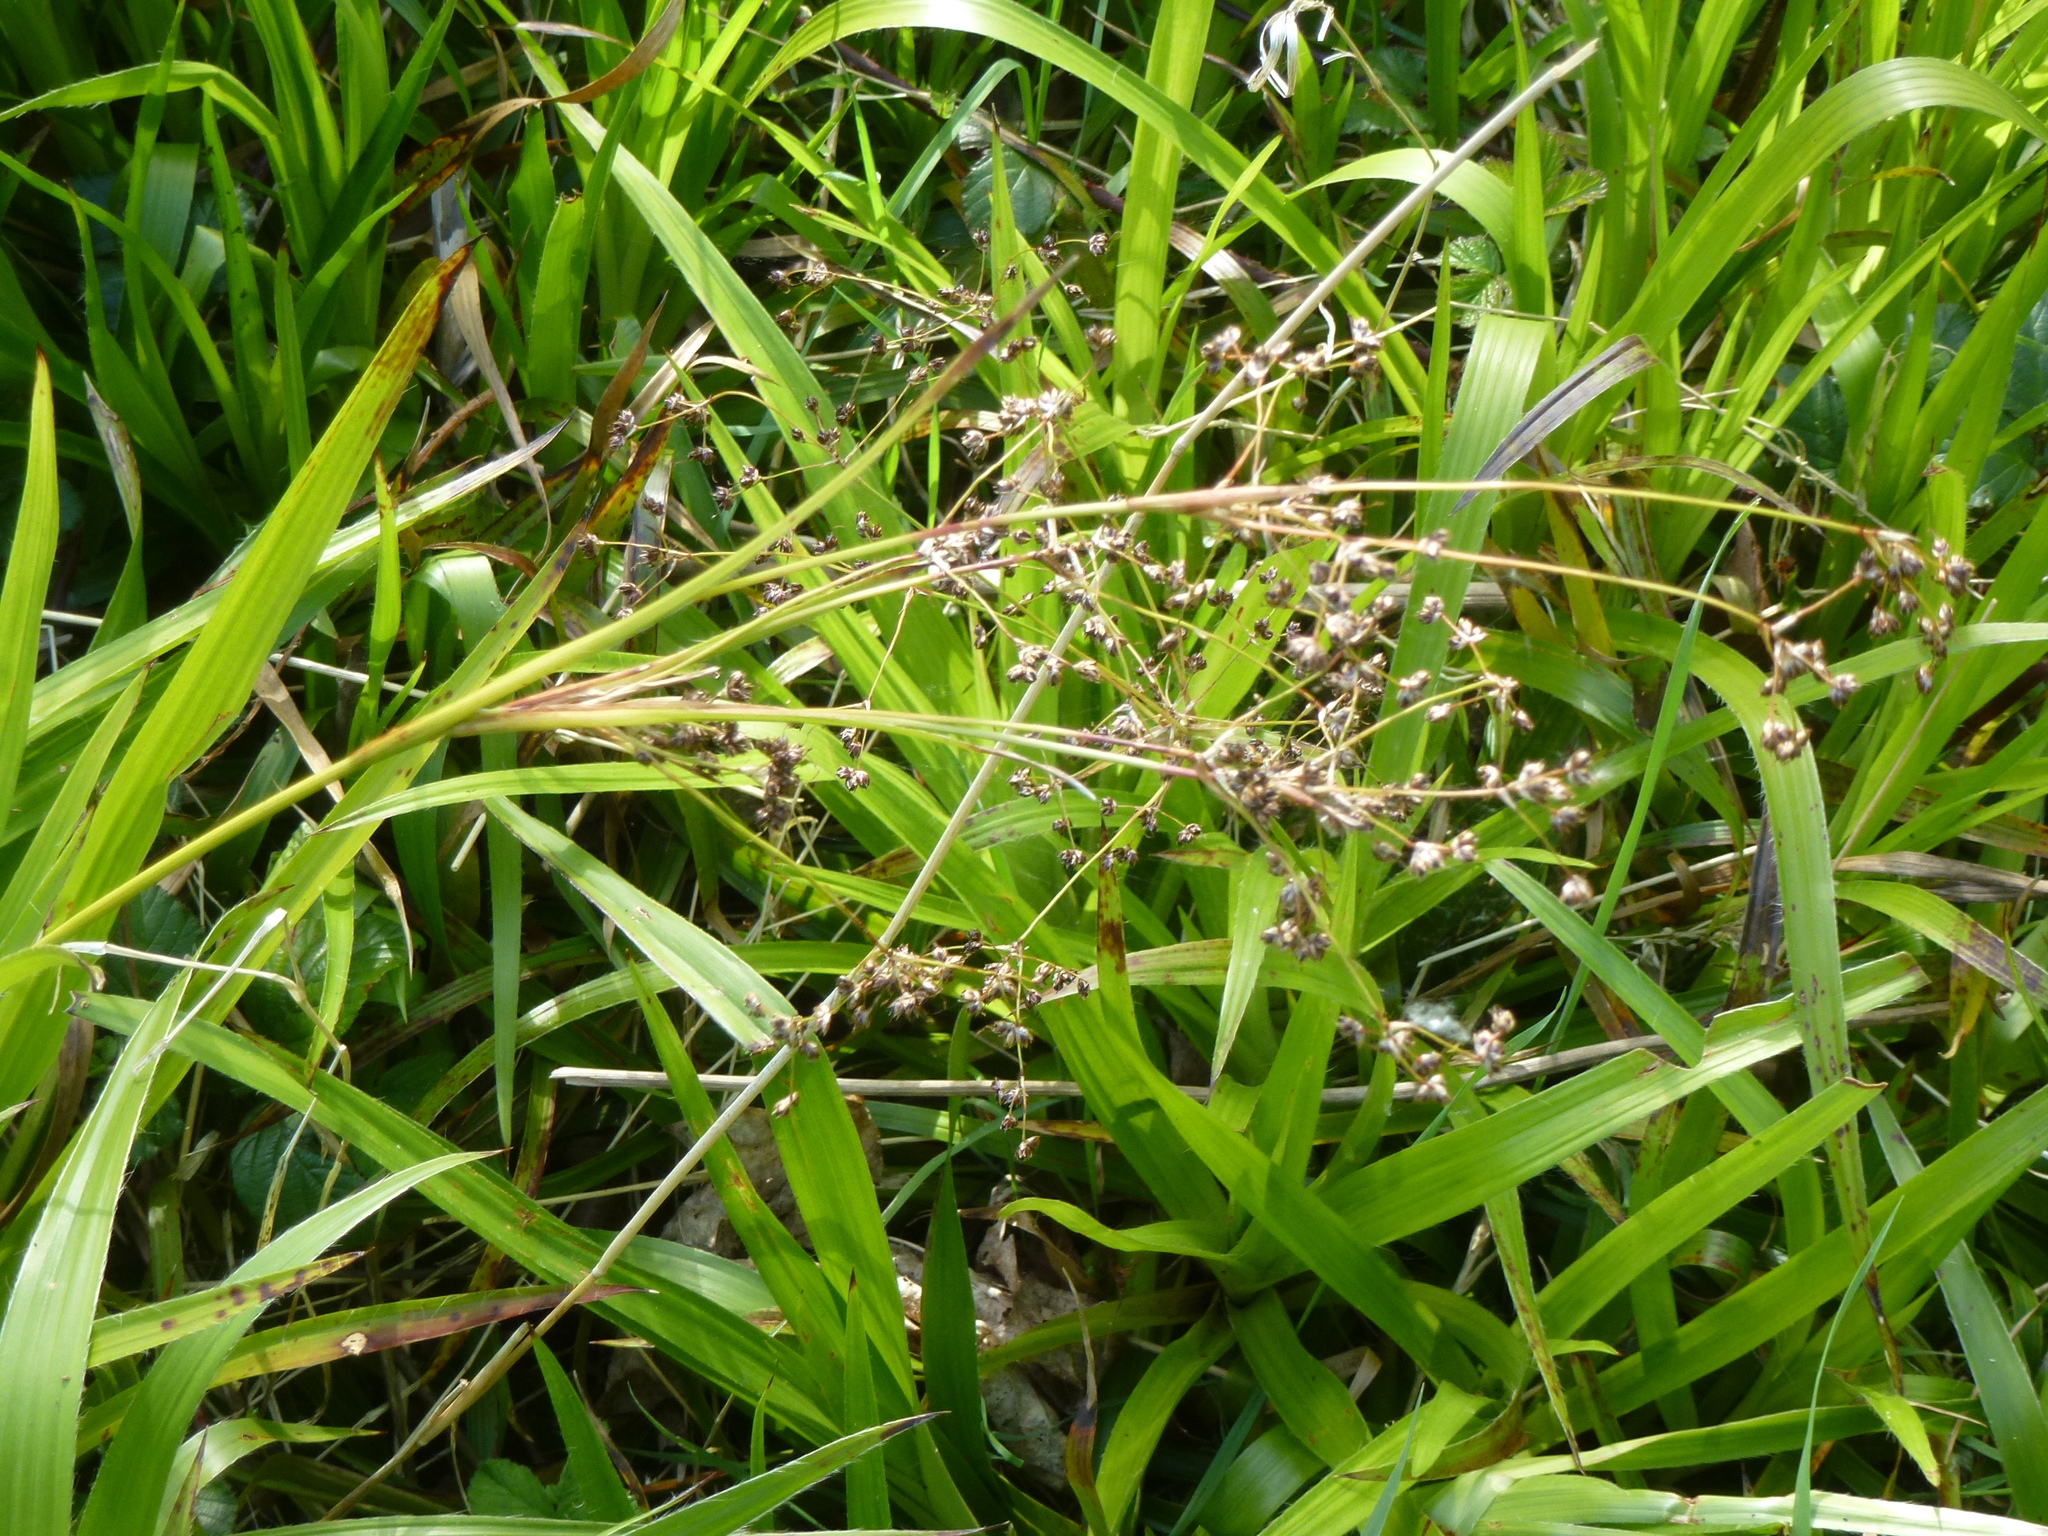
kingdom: Plantae
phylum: Tracheophyta
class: Liliopsida
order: Poales
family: Juncaceae
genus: Luzula
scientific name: Luzula sylvatica
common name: Great wood-rush
